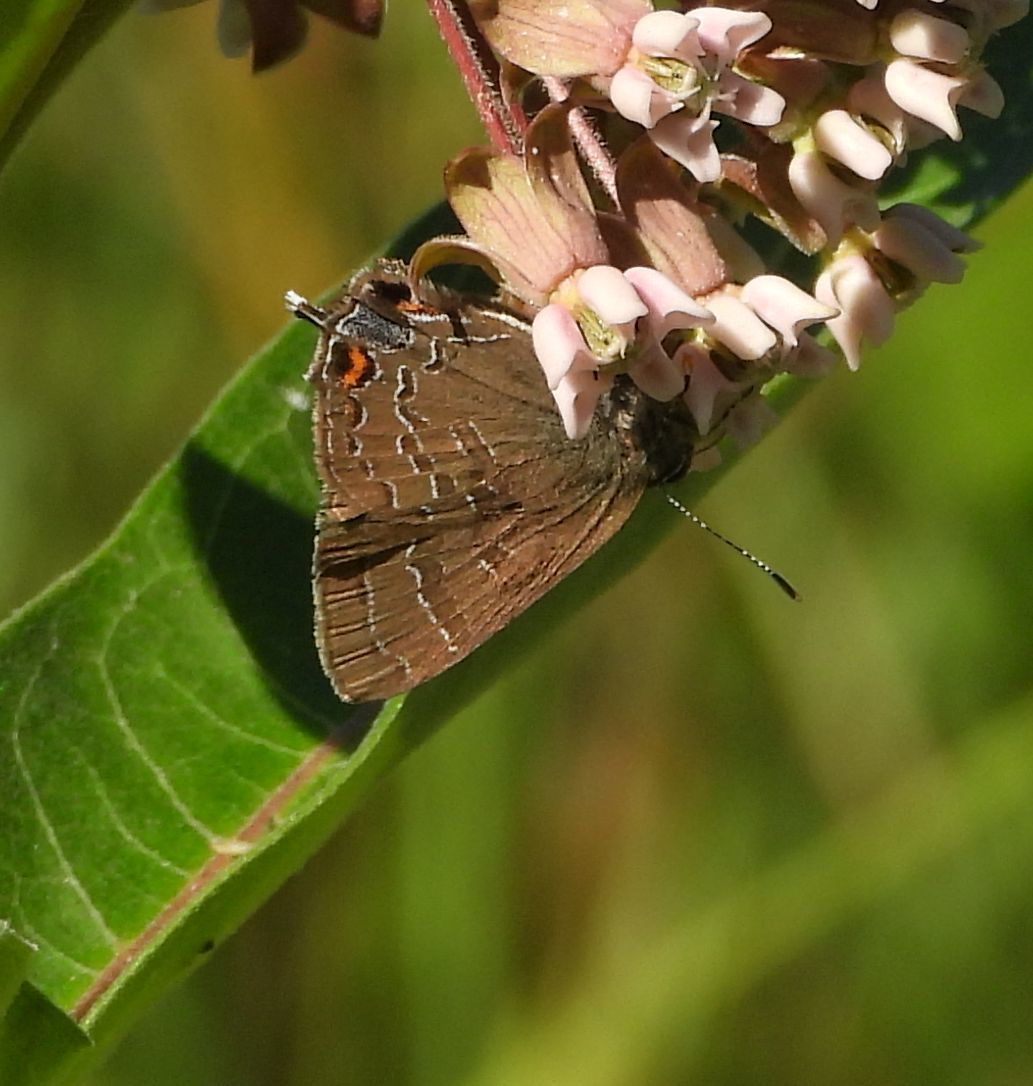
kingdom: Animalia
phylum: Arthropoda
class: Insecta
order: Lepidoptera
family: Lycaenidae
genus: Satyrium
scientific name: Satyrium calanus
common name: Banded hairstreak
